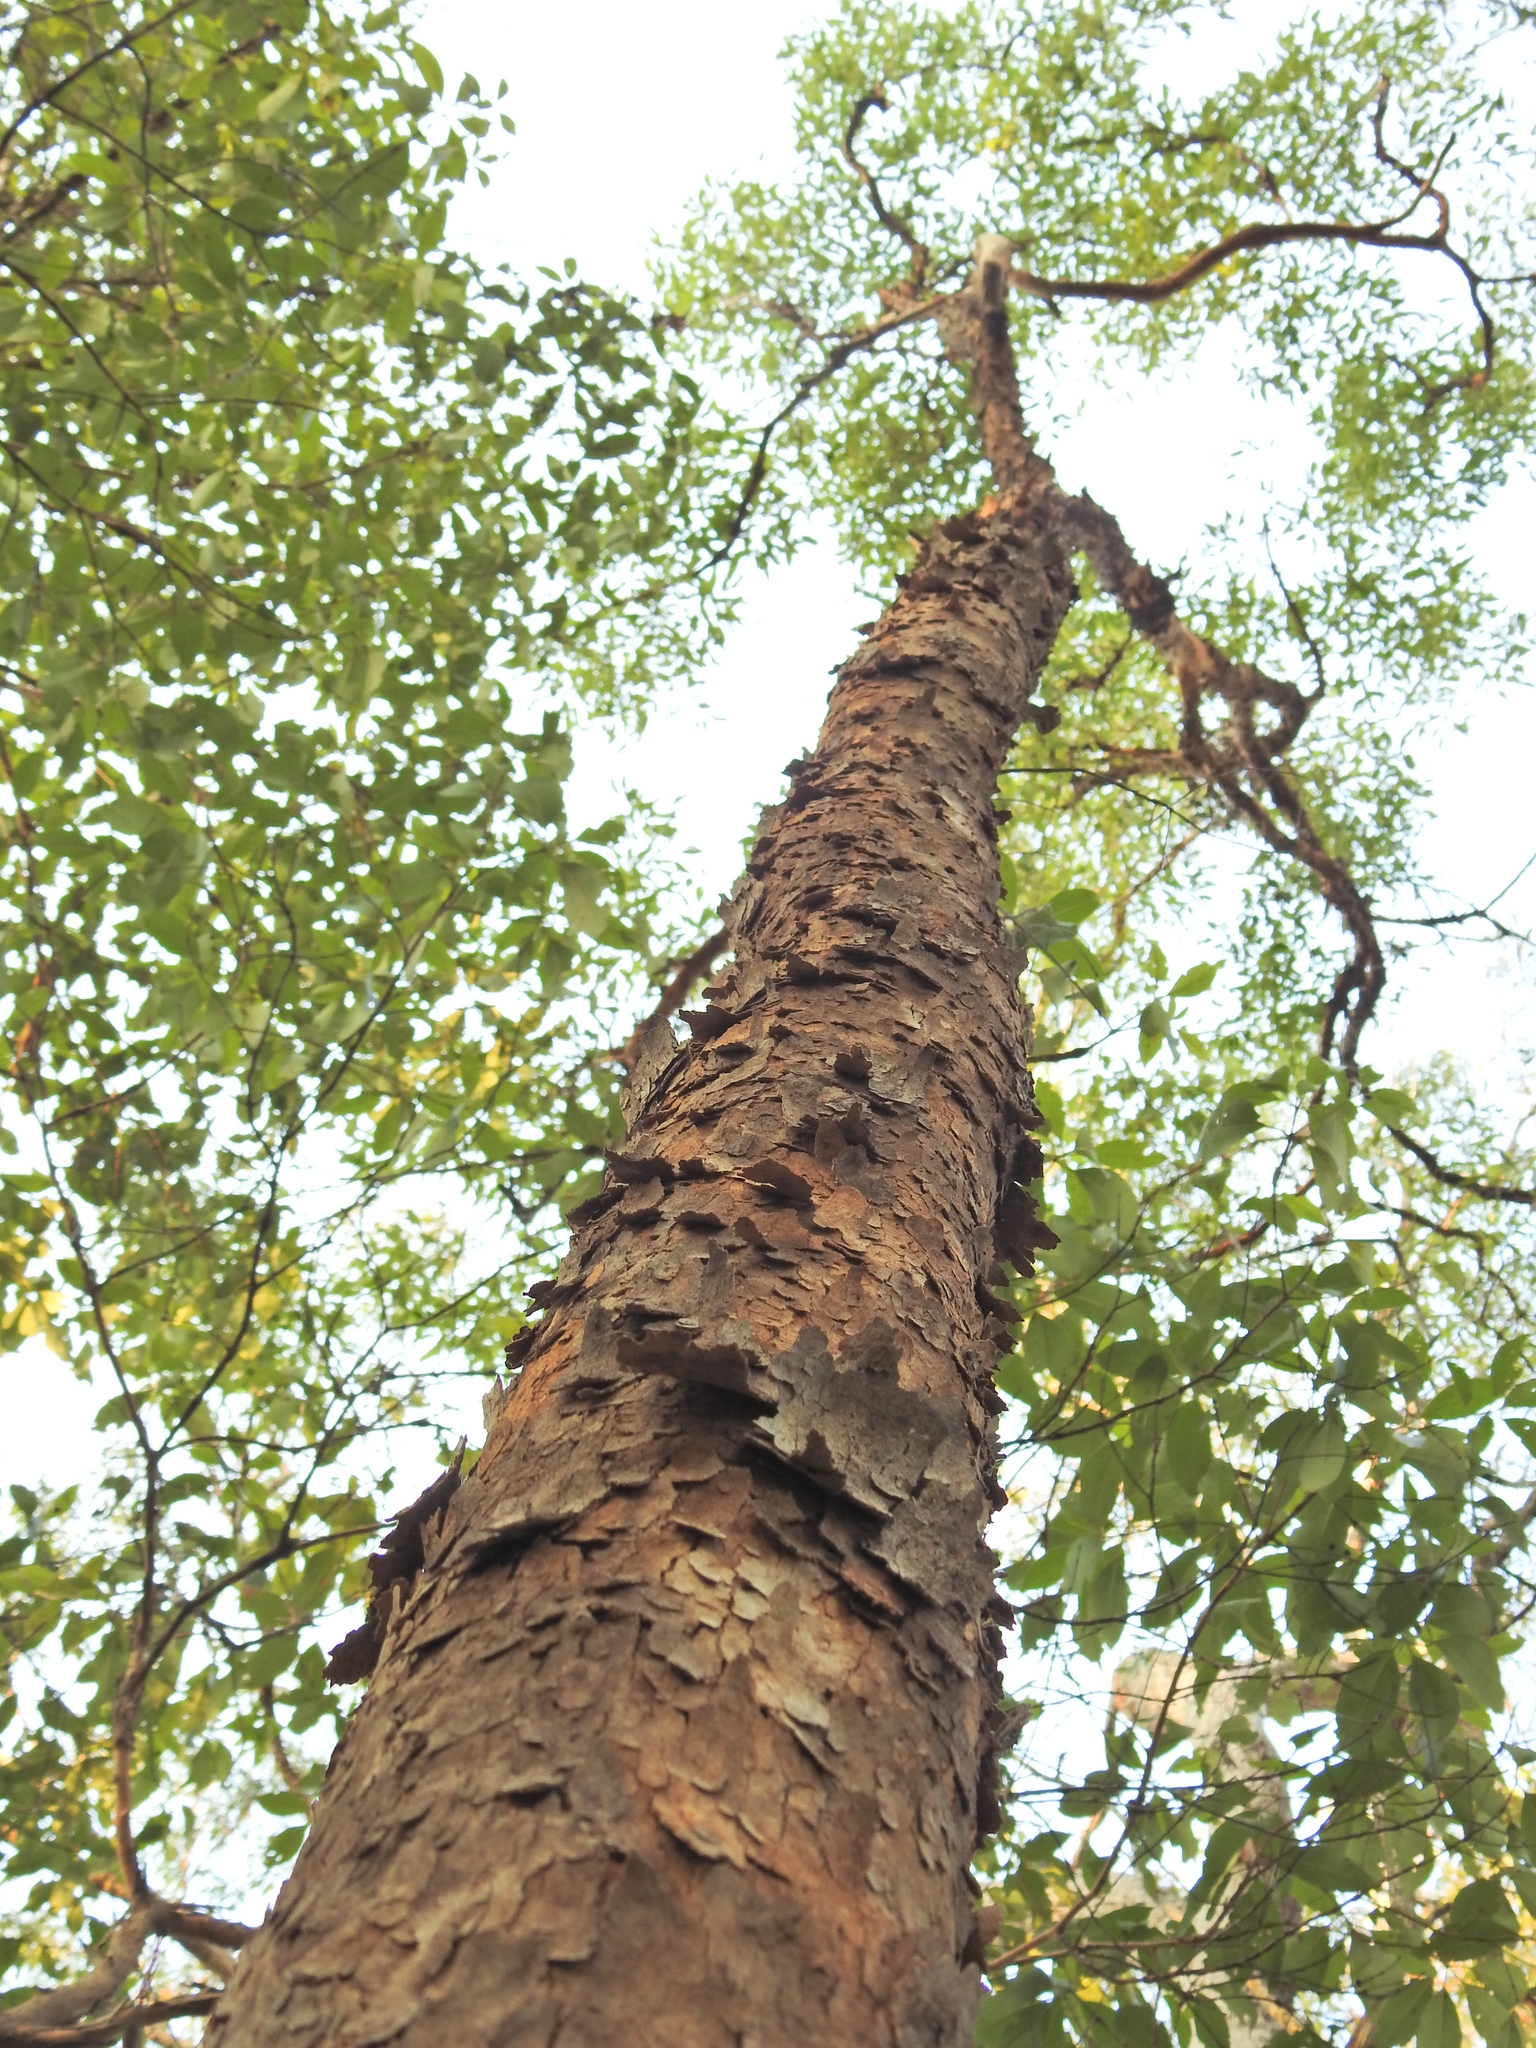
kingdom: Plantae
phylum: Tracheophyta
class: Magnoliopsida
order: Myrtales
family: Myrtaceae
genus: Angophora
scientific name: Angophora leiocarpa
